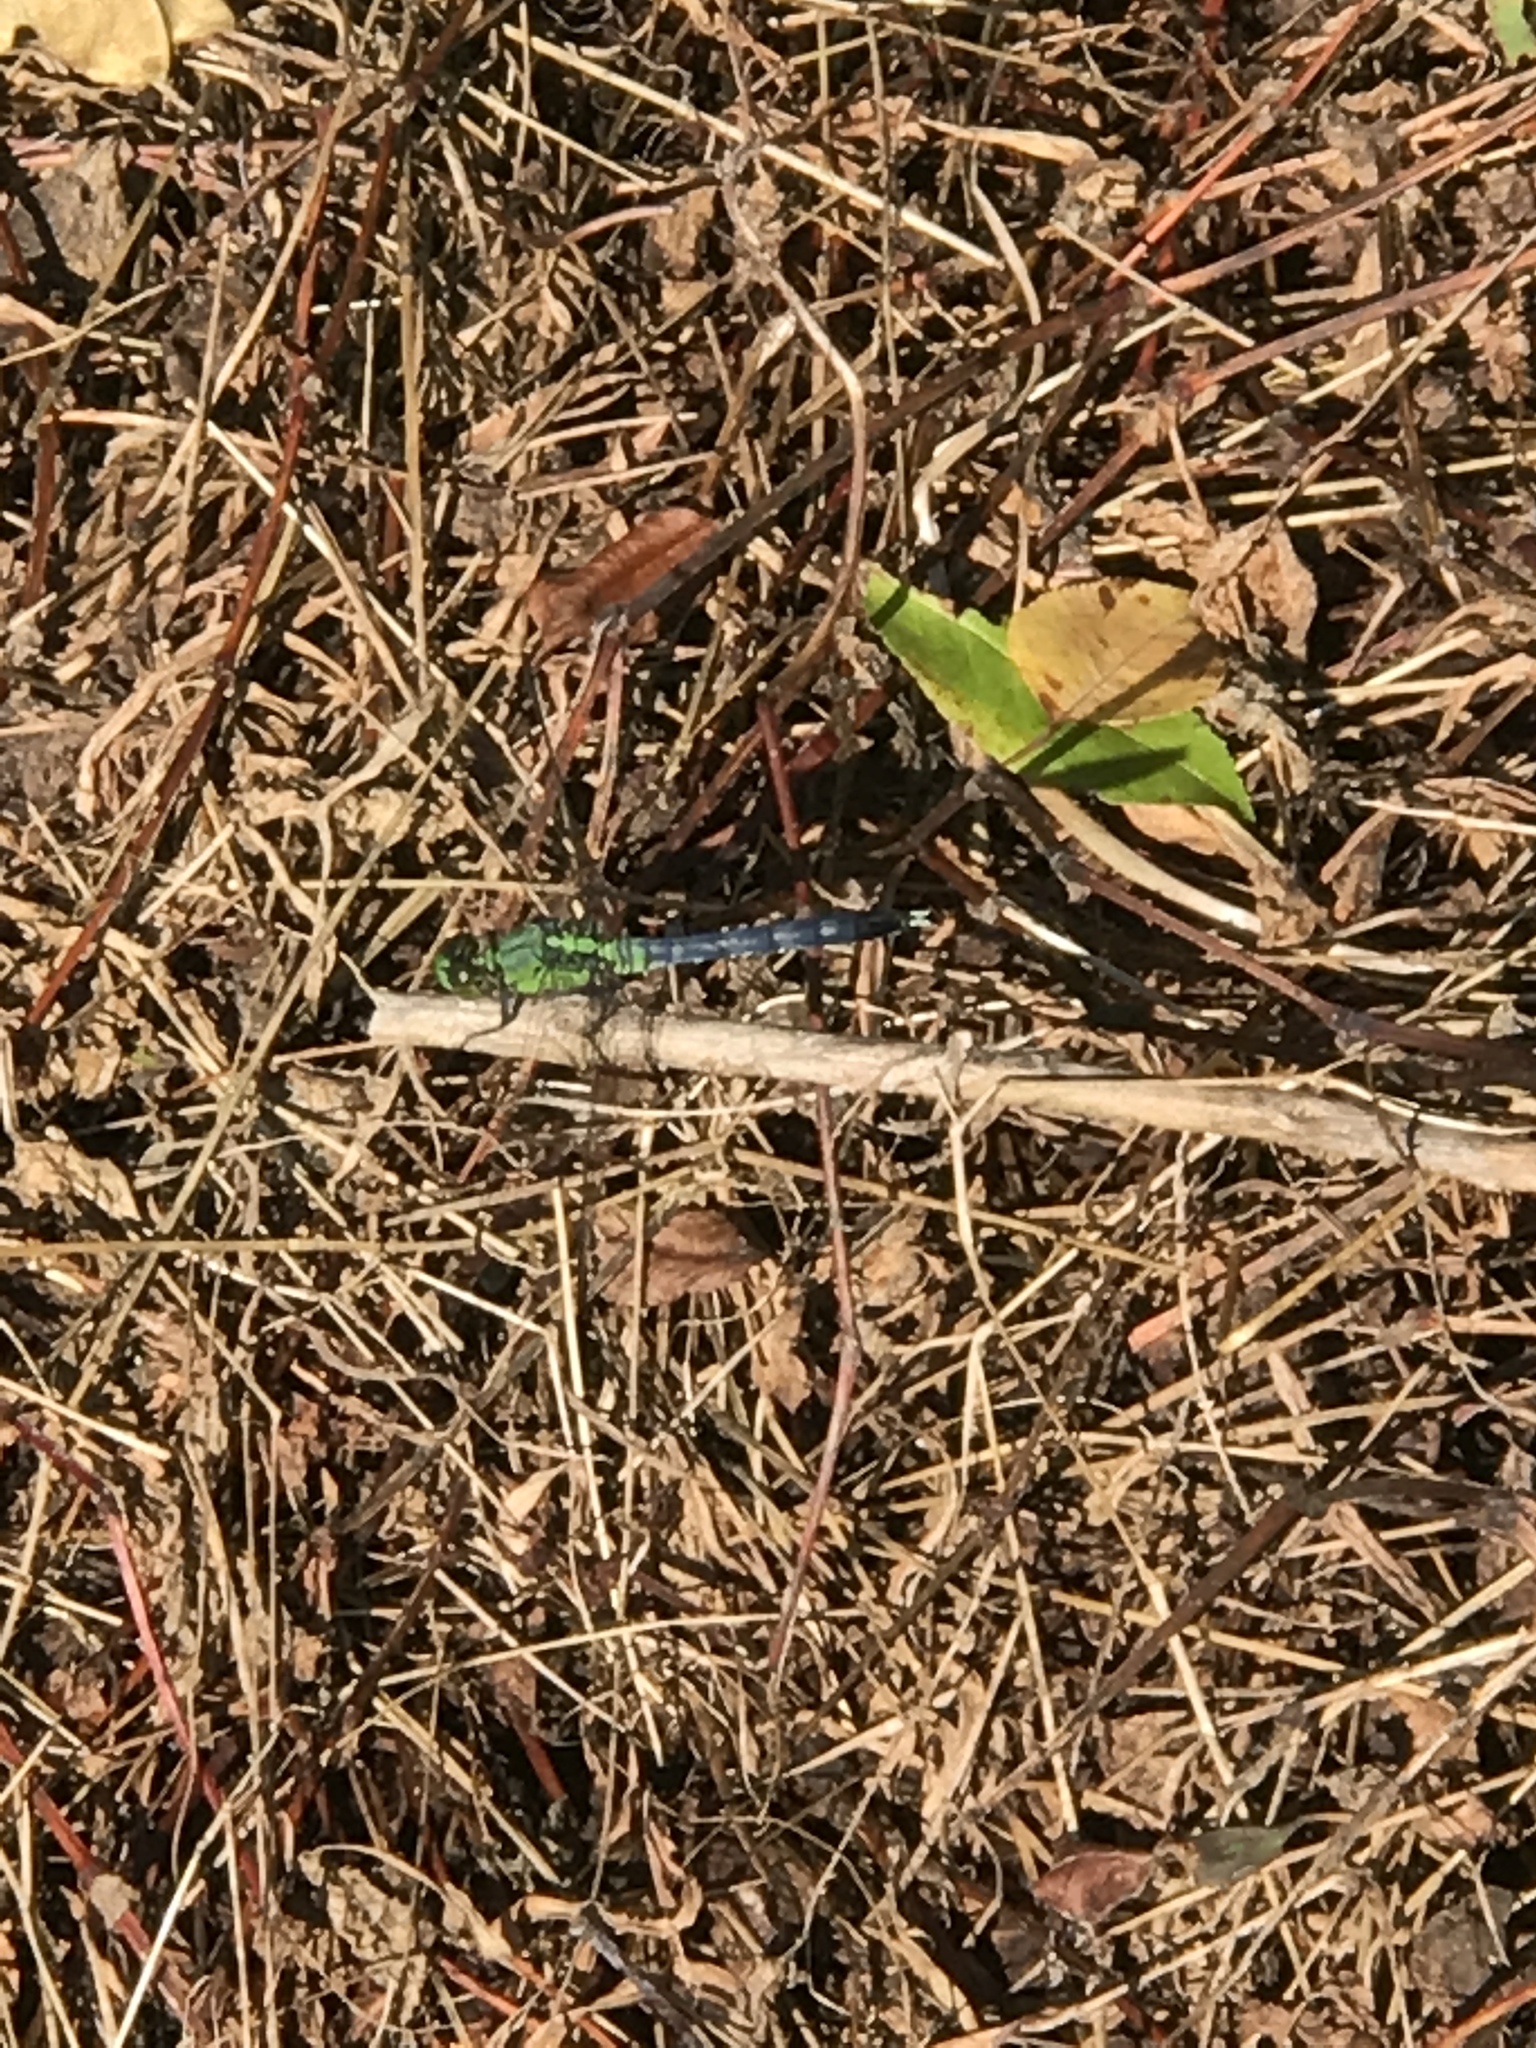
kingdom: Animalia
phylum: Arthropoda
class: Insecta
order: Odonata
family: Libellulidae
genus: Erythemis
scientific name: Erythemis simplicicollis
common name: Eastern pondhawk
